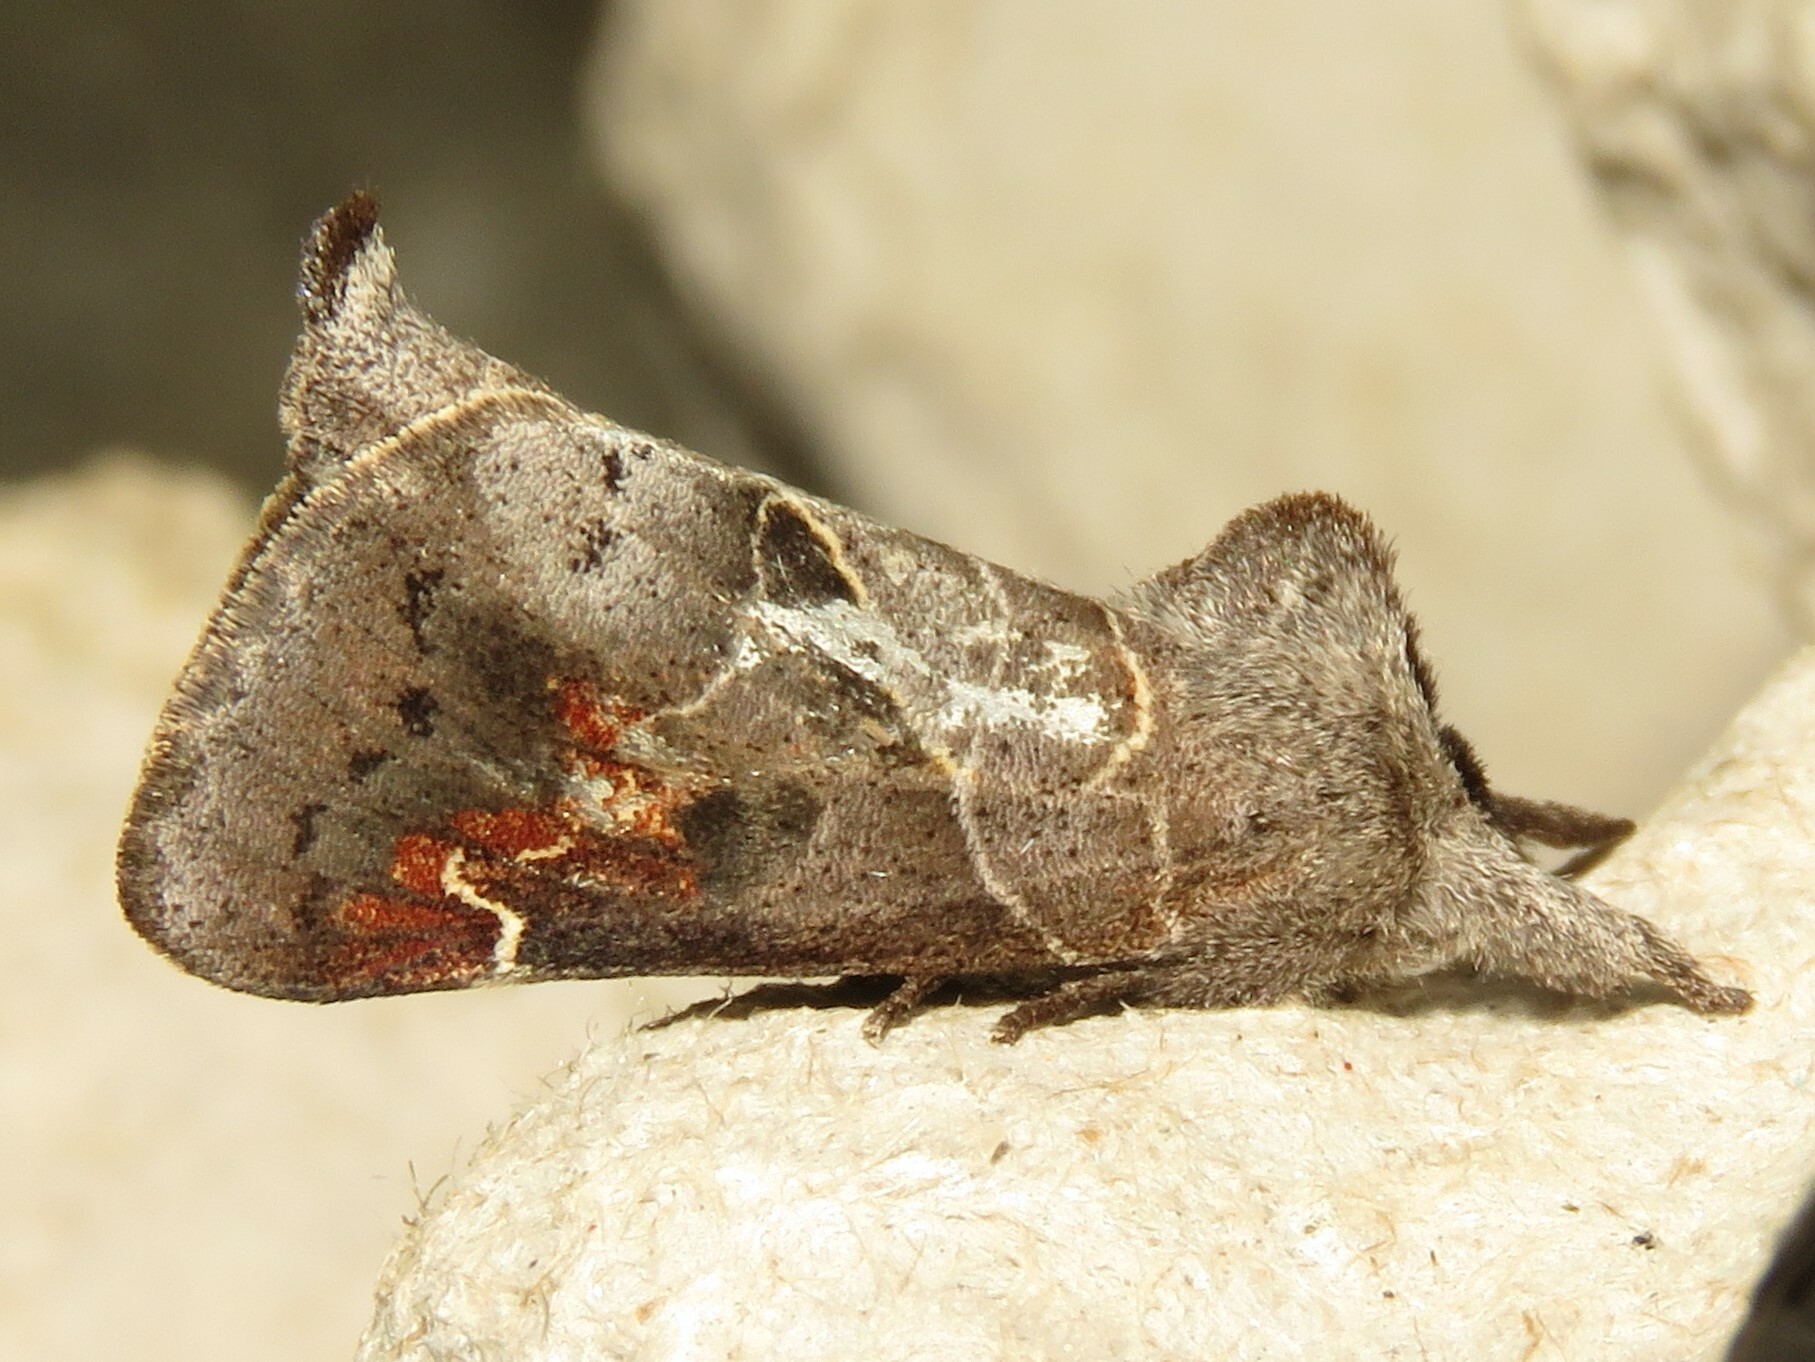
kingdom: Animalia
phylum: Arthropoda
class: Insecta
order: Lepidoptera
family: Notodontidae
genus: Clostera
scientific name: Clostera apicalis
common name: Apical prominent
